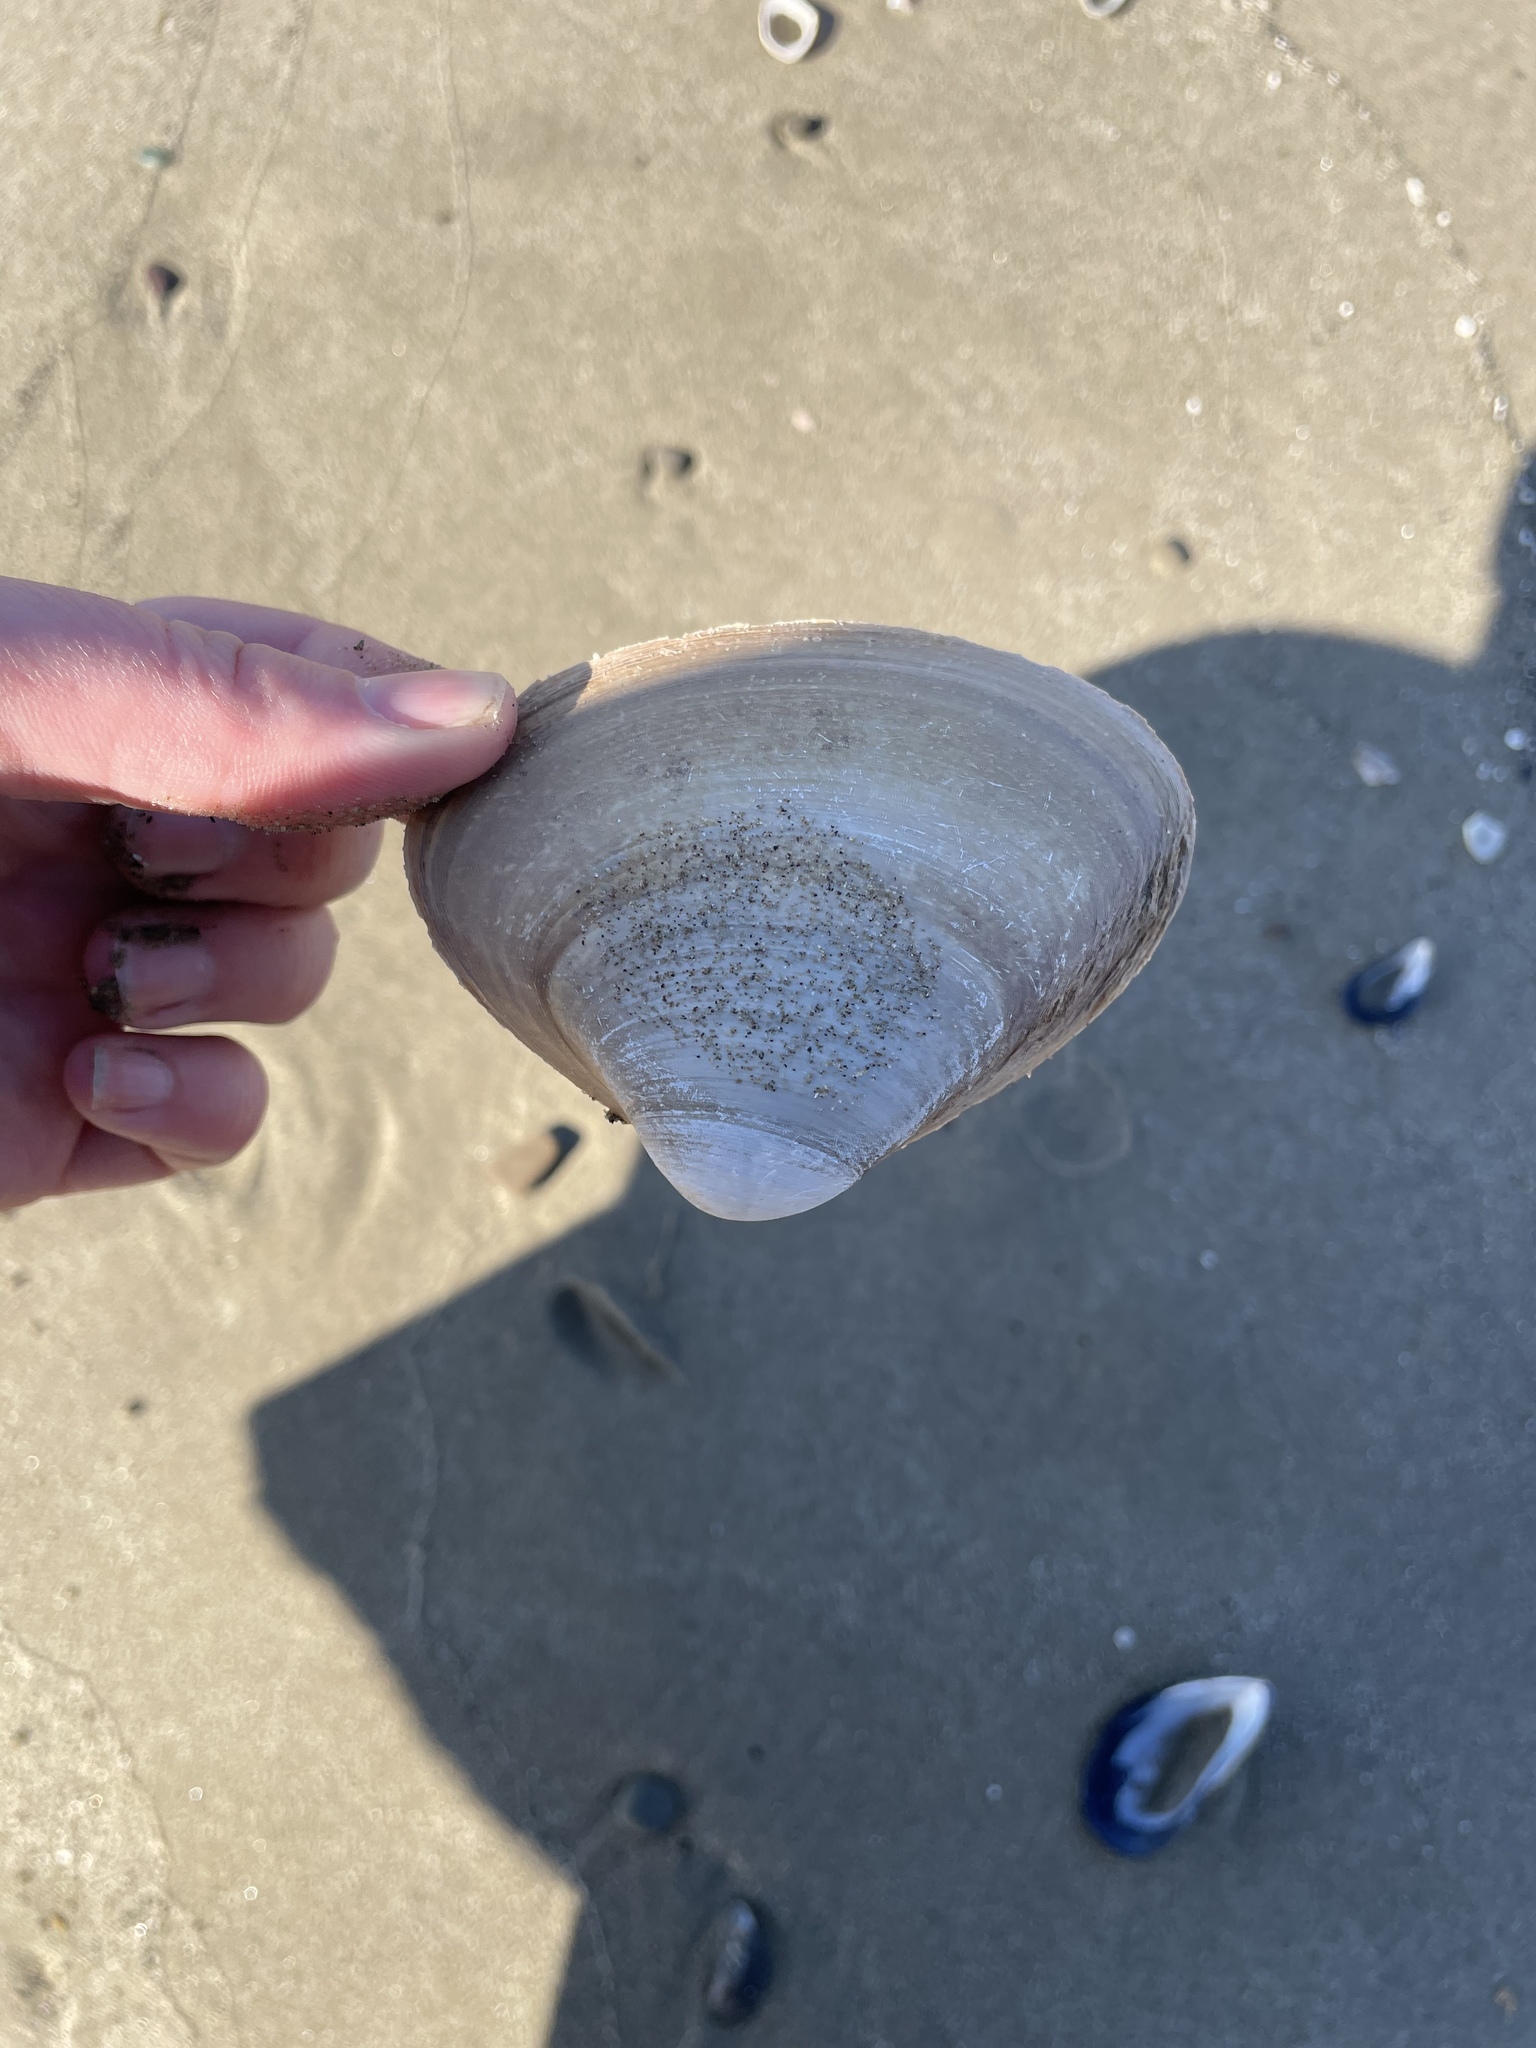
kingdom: Animalia
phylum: Mollusca
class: Bivalvia
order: Venerida
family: Mactridae
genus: Spisula
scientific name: Spisula solidissima
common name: Atlantic surf clam
